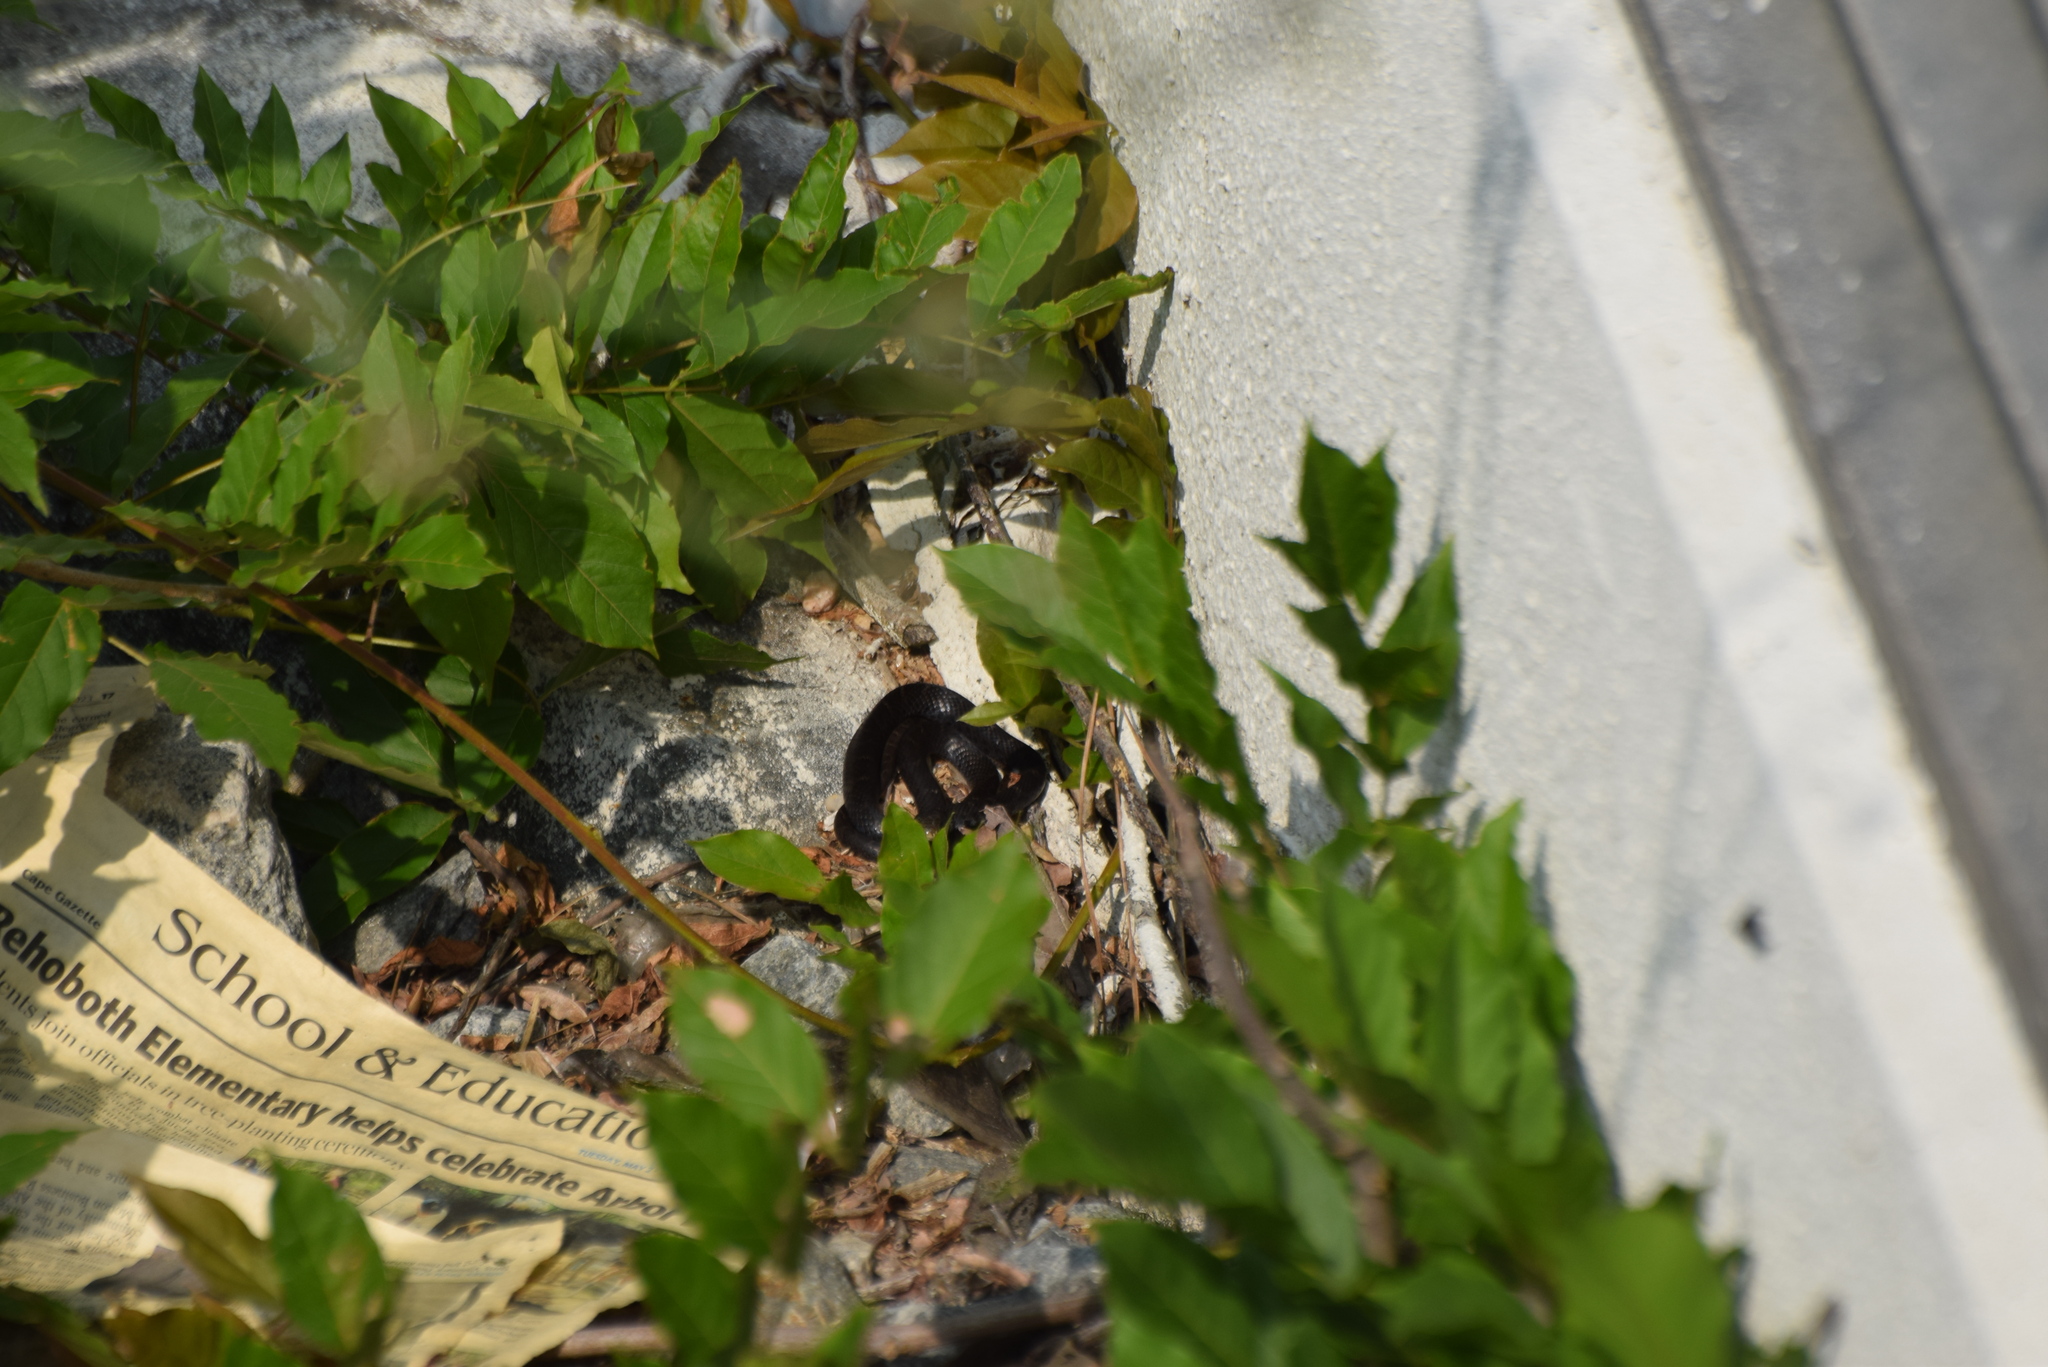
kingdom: Animalia
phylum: Chordata
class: Squamata
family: Colubridae
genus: Coluber
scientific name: Coluber constrictor
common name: Eastern racer
